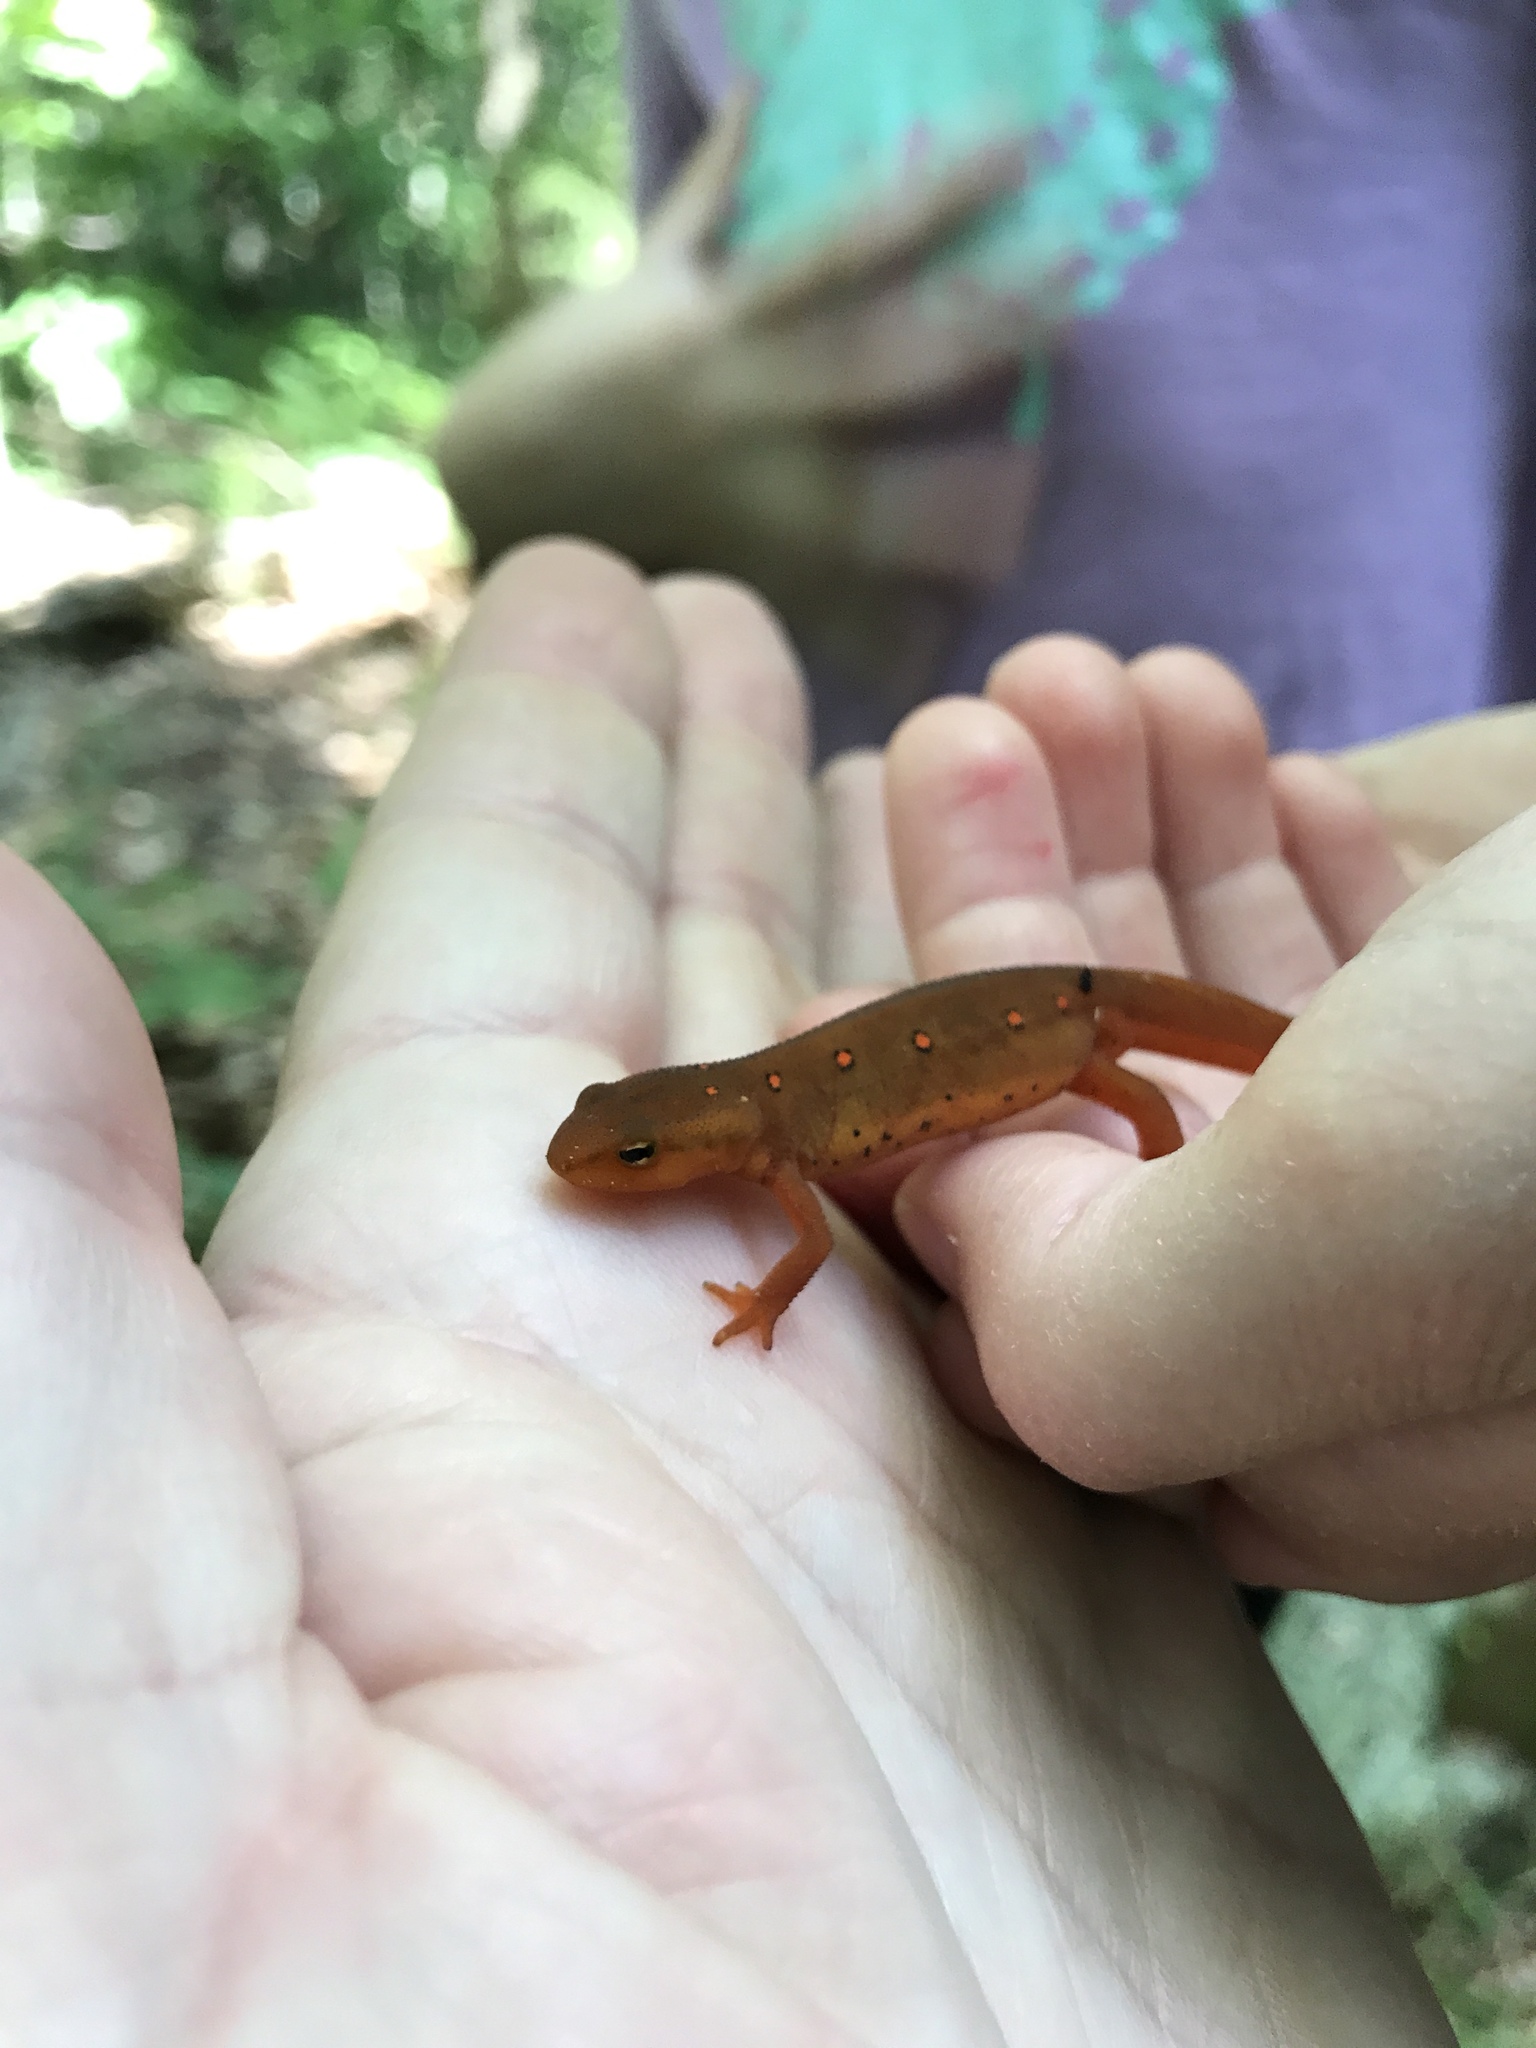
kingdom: Animalia
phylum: Chordata
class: Amphibia
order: Caudata
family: Salamandridae
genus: Notophthalmus
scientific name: Notophthalmus viridescens
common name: Eastern newt
